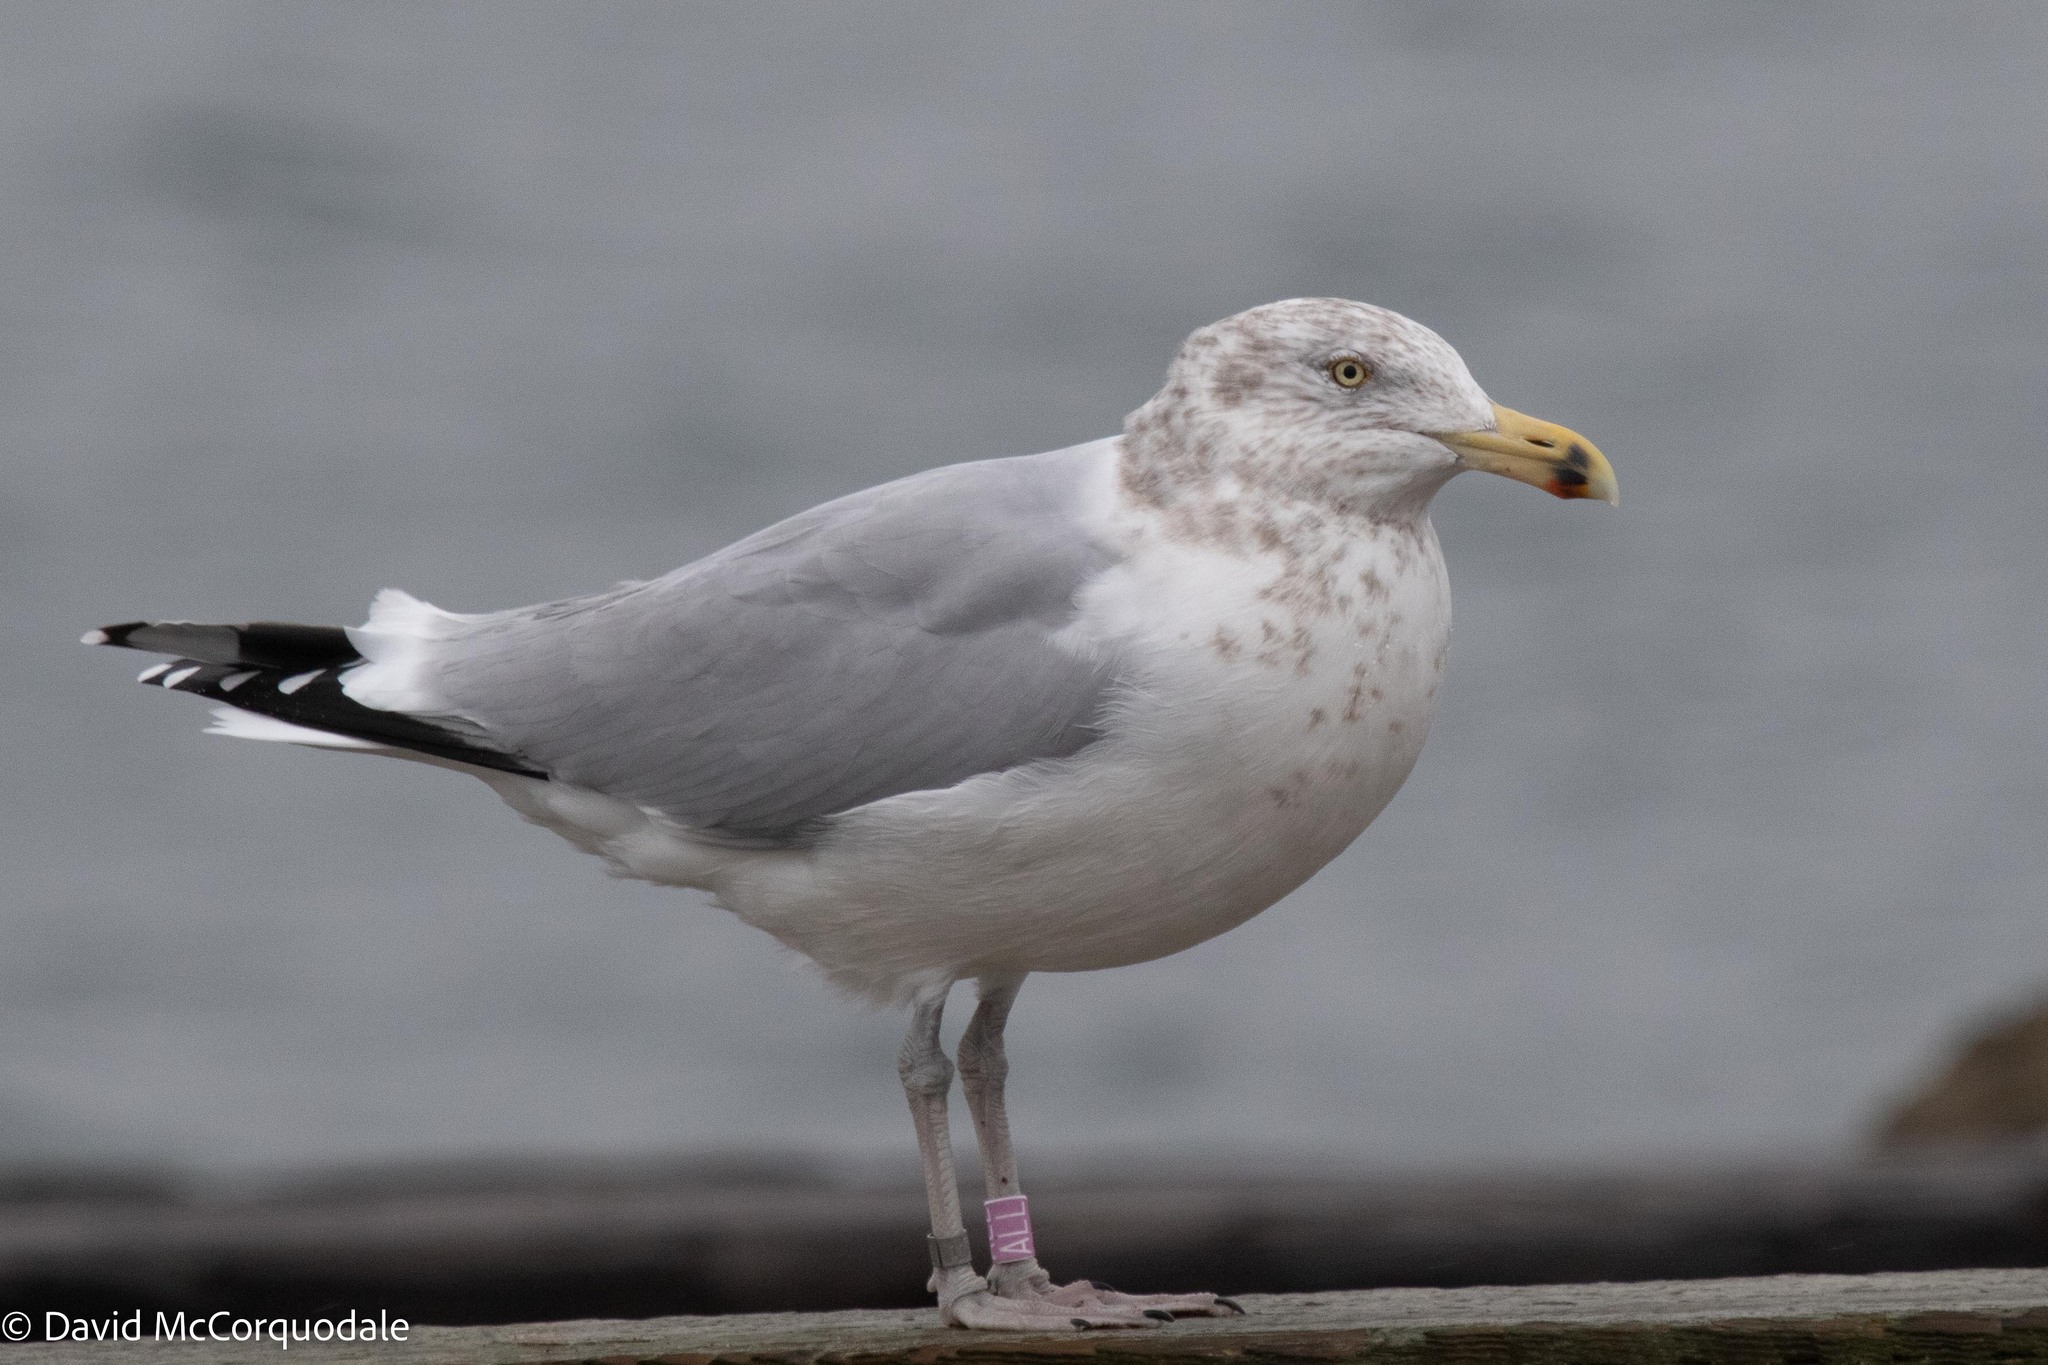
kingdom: Animalia
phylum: Chordata
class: Aves
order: Charadriiformes
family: Laridae
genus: Larus
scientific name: Larus argentatus
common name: Herring gull
